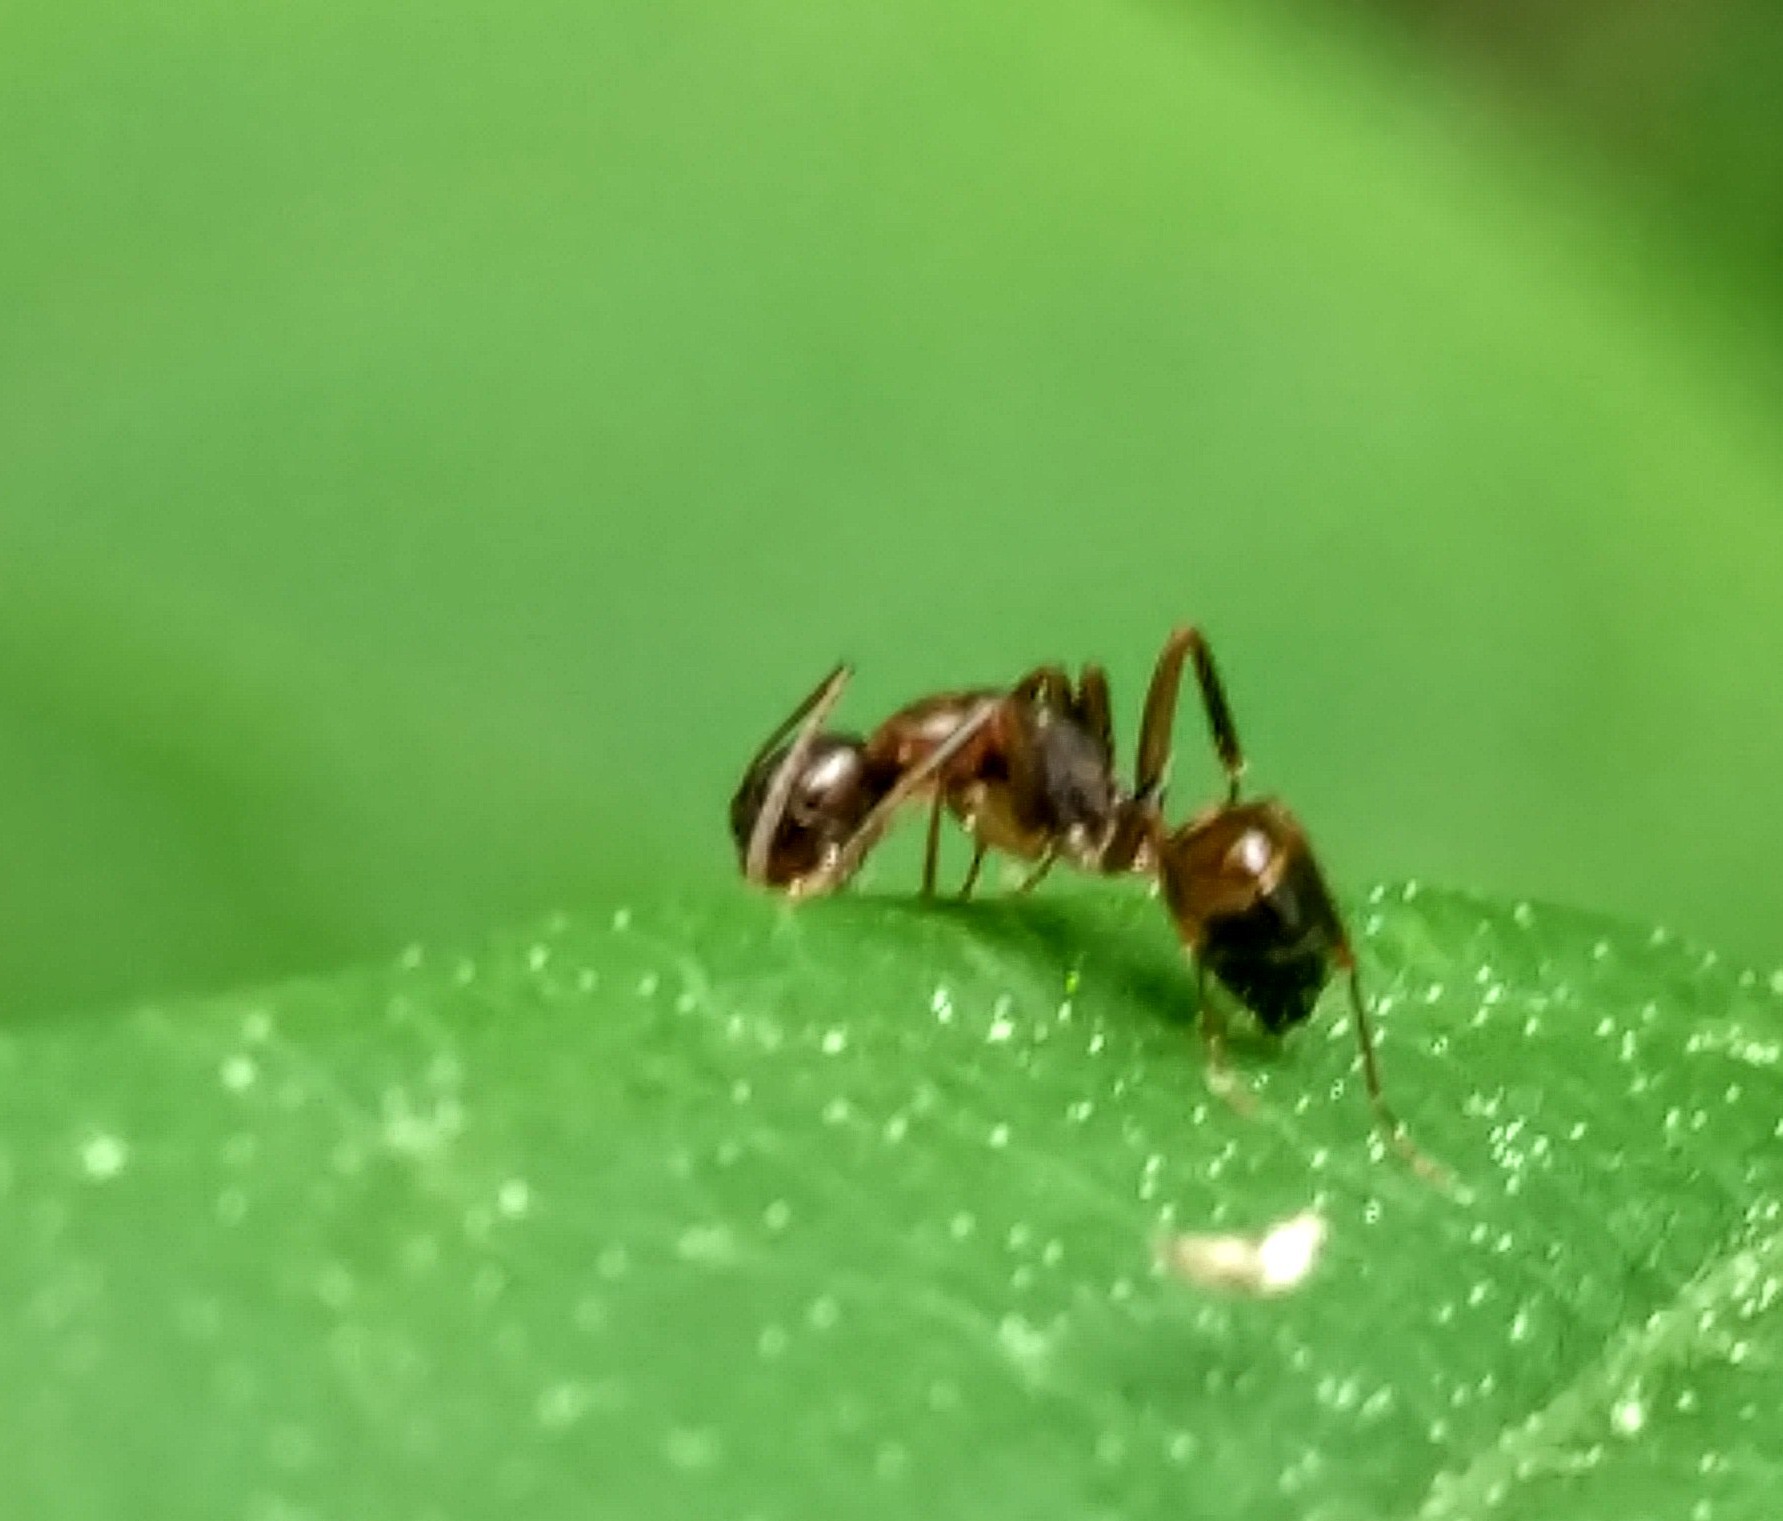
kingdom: Animalia
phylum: Arthropoda
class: Insecta
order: Hymenoptera
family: Formicidae
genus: Camponotus
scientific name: Camponotus subbarbatus
